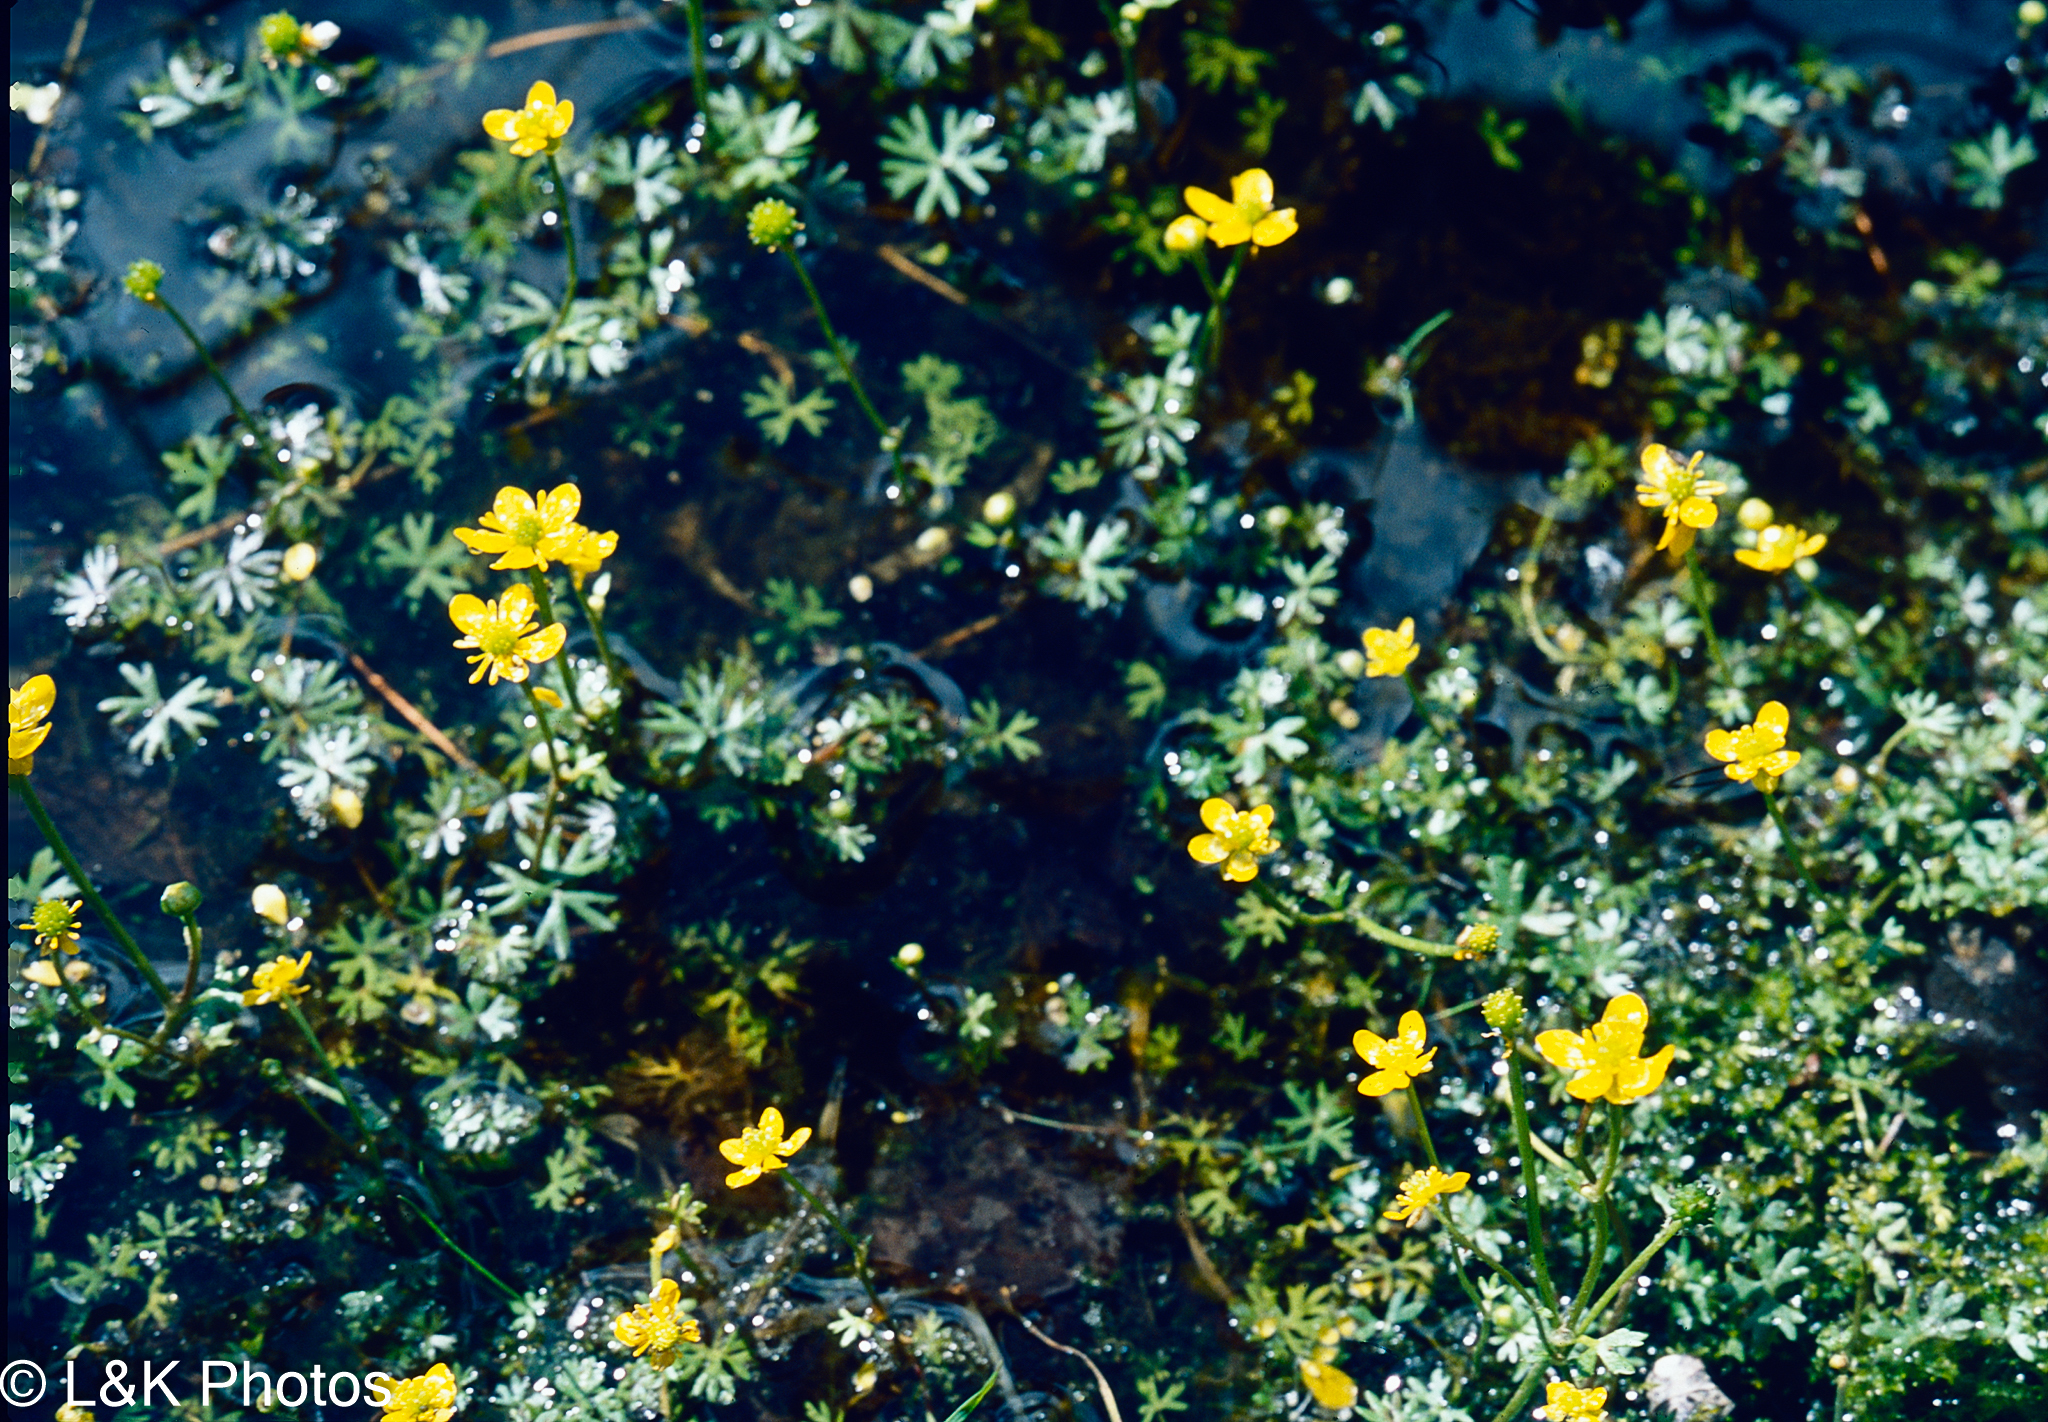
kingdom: Plantae
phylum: Tracheophyta
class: Magnoliopsida
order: Ranunculales
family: Ranunculaceae
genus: Ranunculus
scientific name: Ranunculus gmelinii
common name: Gmelin's buttercup
